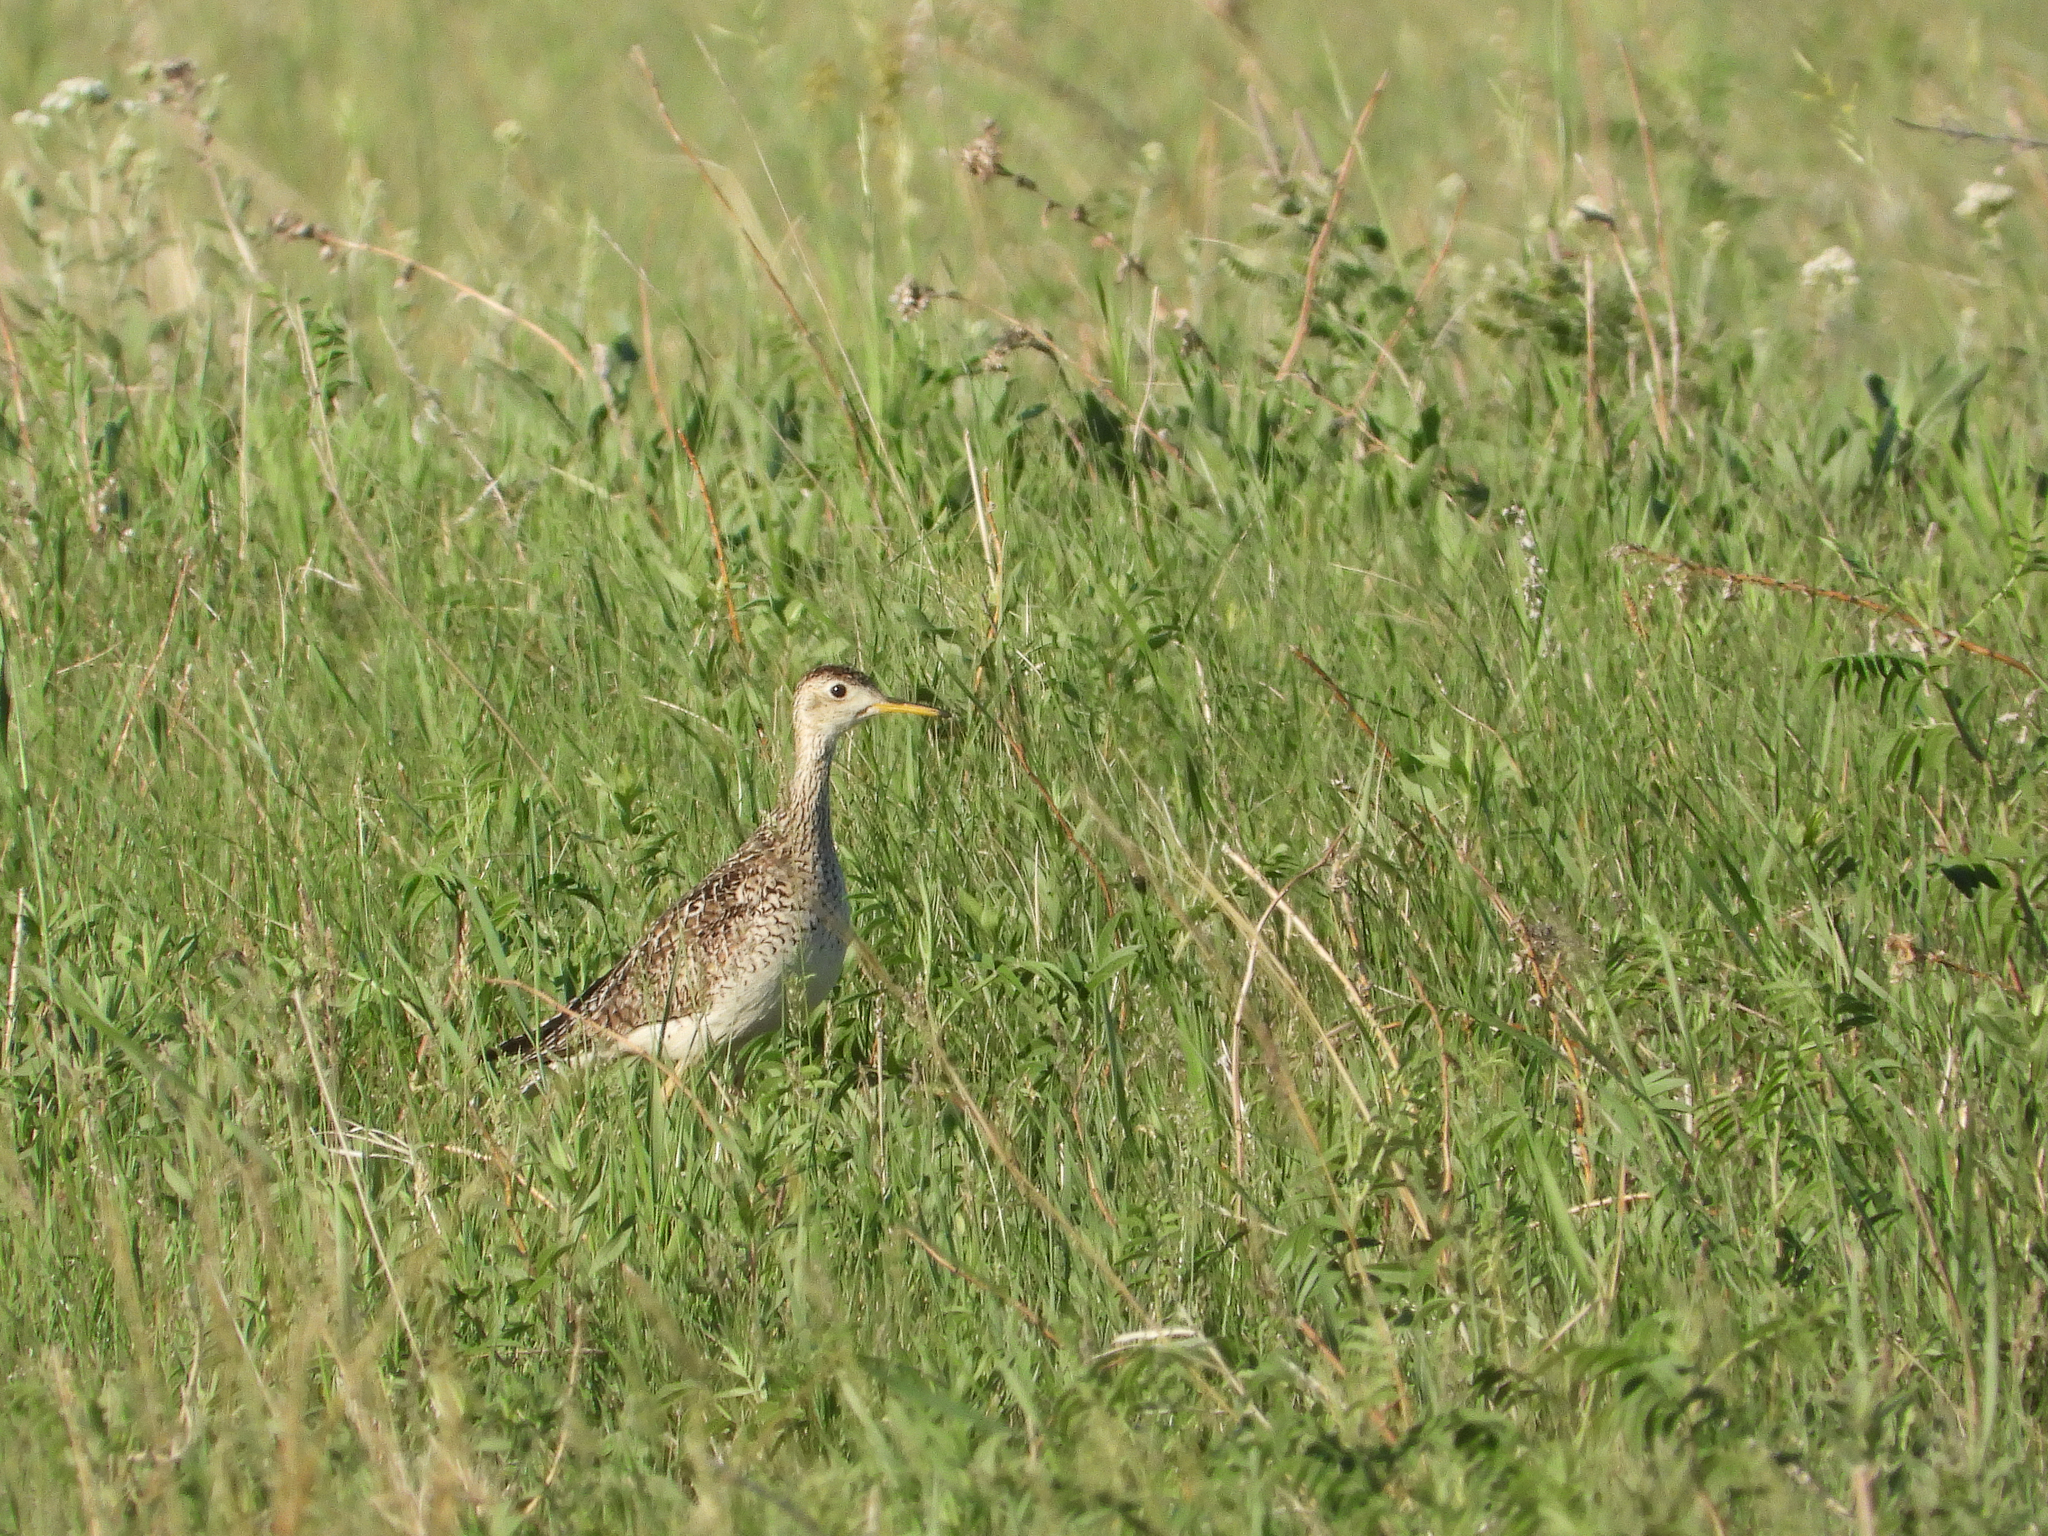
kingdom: Animalia
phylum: Chordata
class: Aves
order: Charadriiformes
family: Scolopacidae
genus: Bartramia
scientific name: Bartramia longicauda
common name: Upland sandpiper
